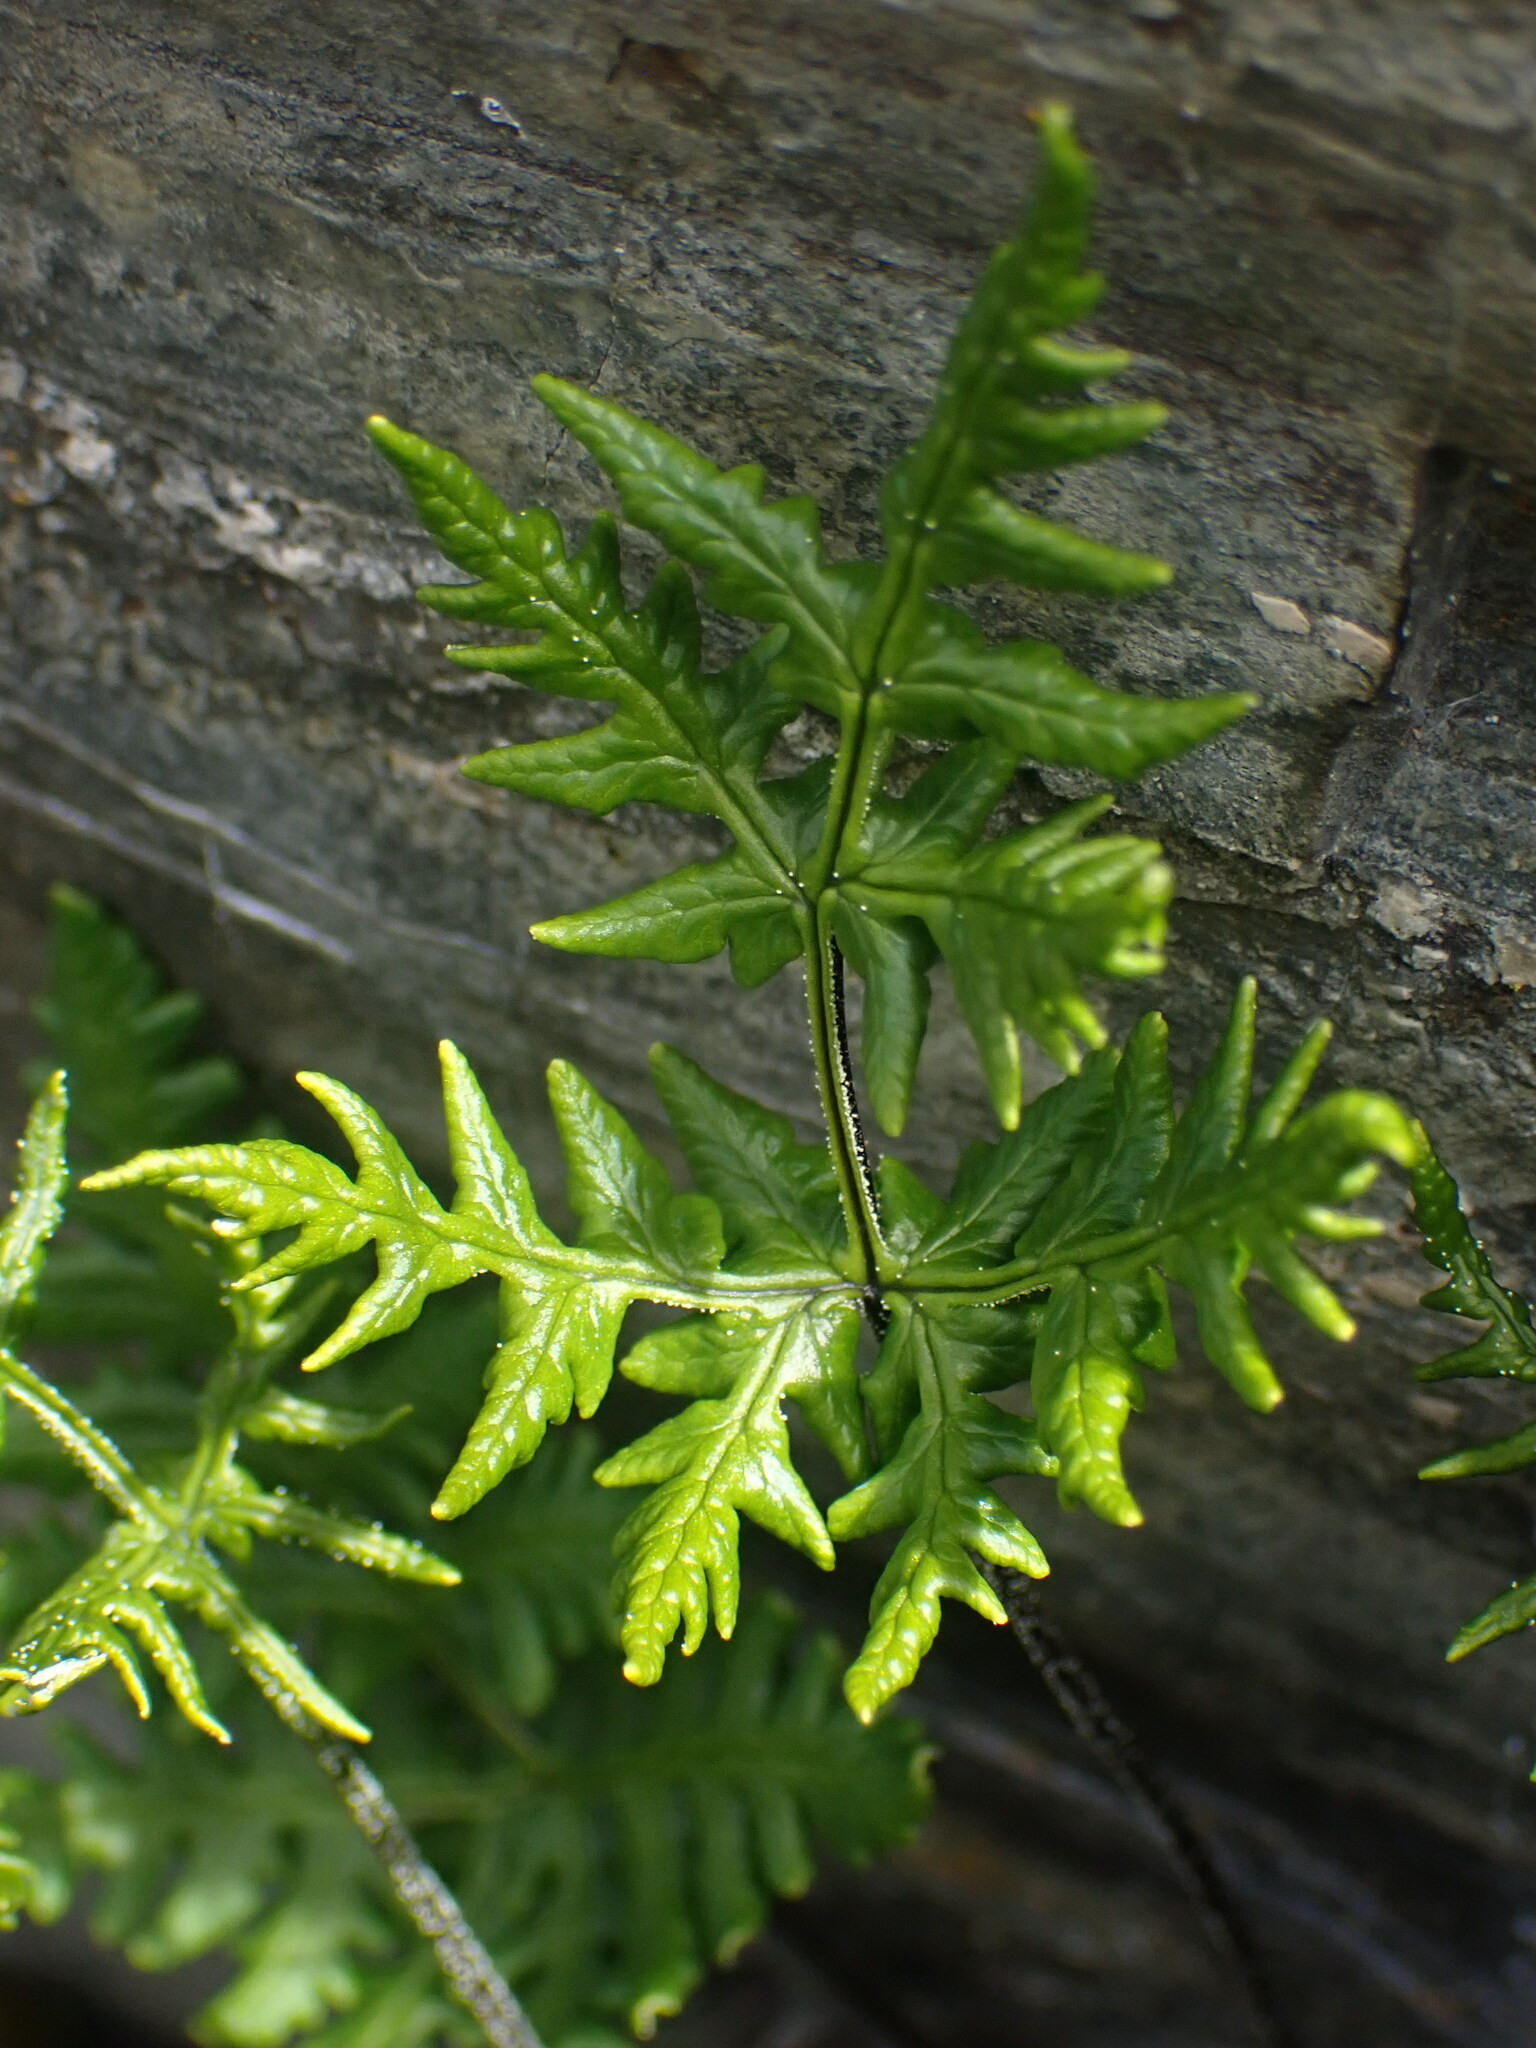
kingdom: Plantae
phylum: Tracheophyta
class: Polypodiopsida
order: Polypodiales
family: Pteridaceae
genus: Pentagramma
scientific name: Pentagramma triangularis
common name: Gold fern
